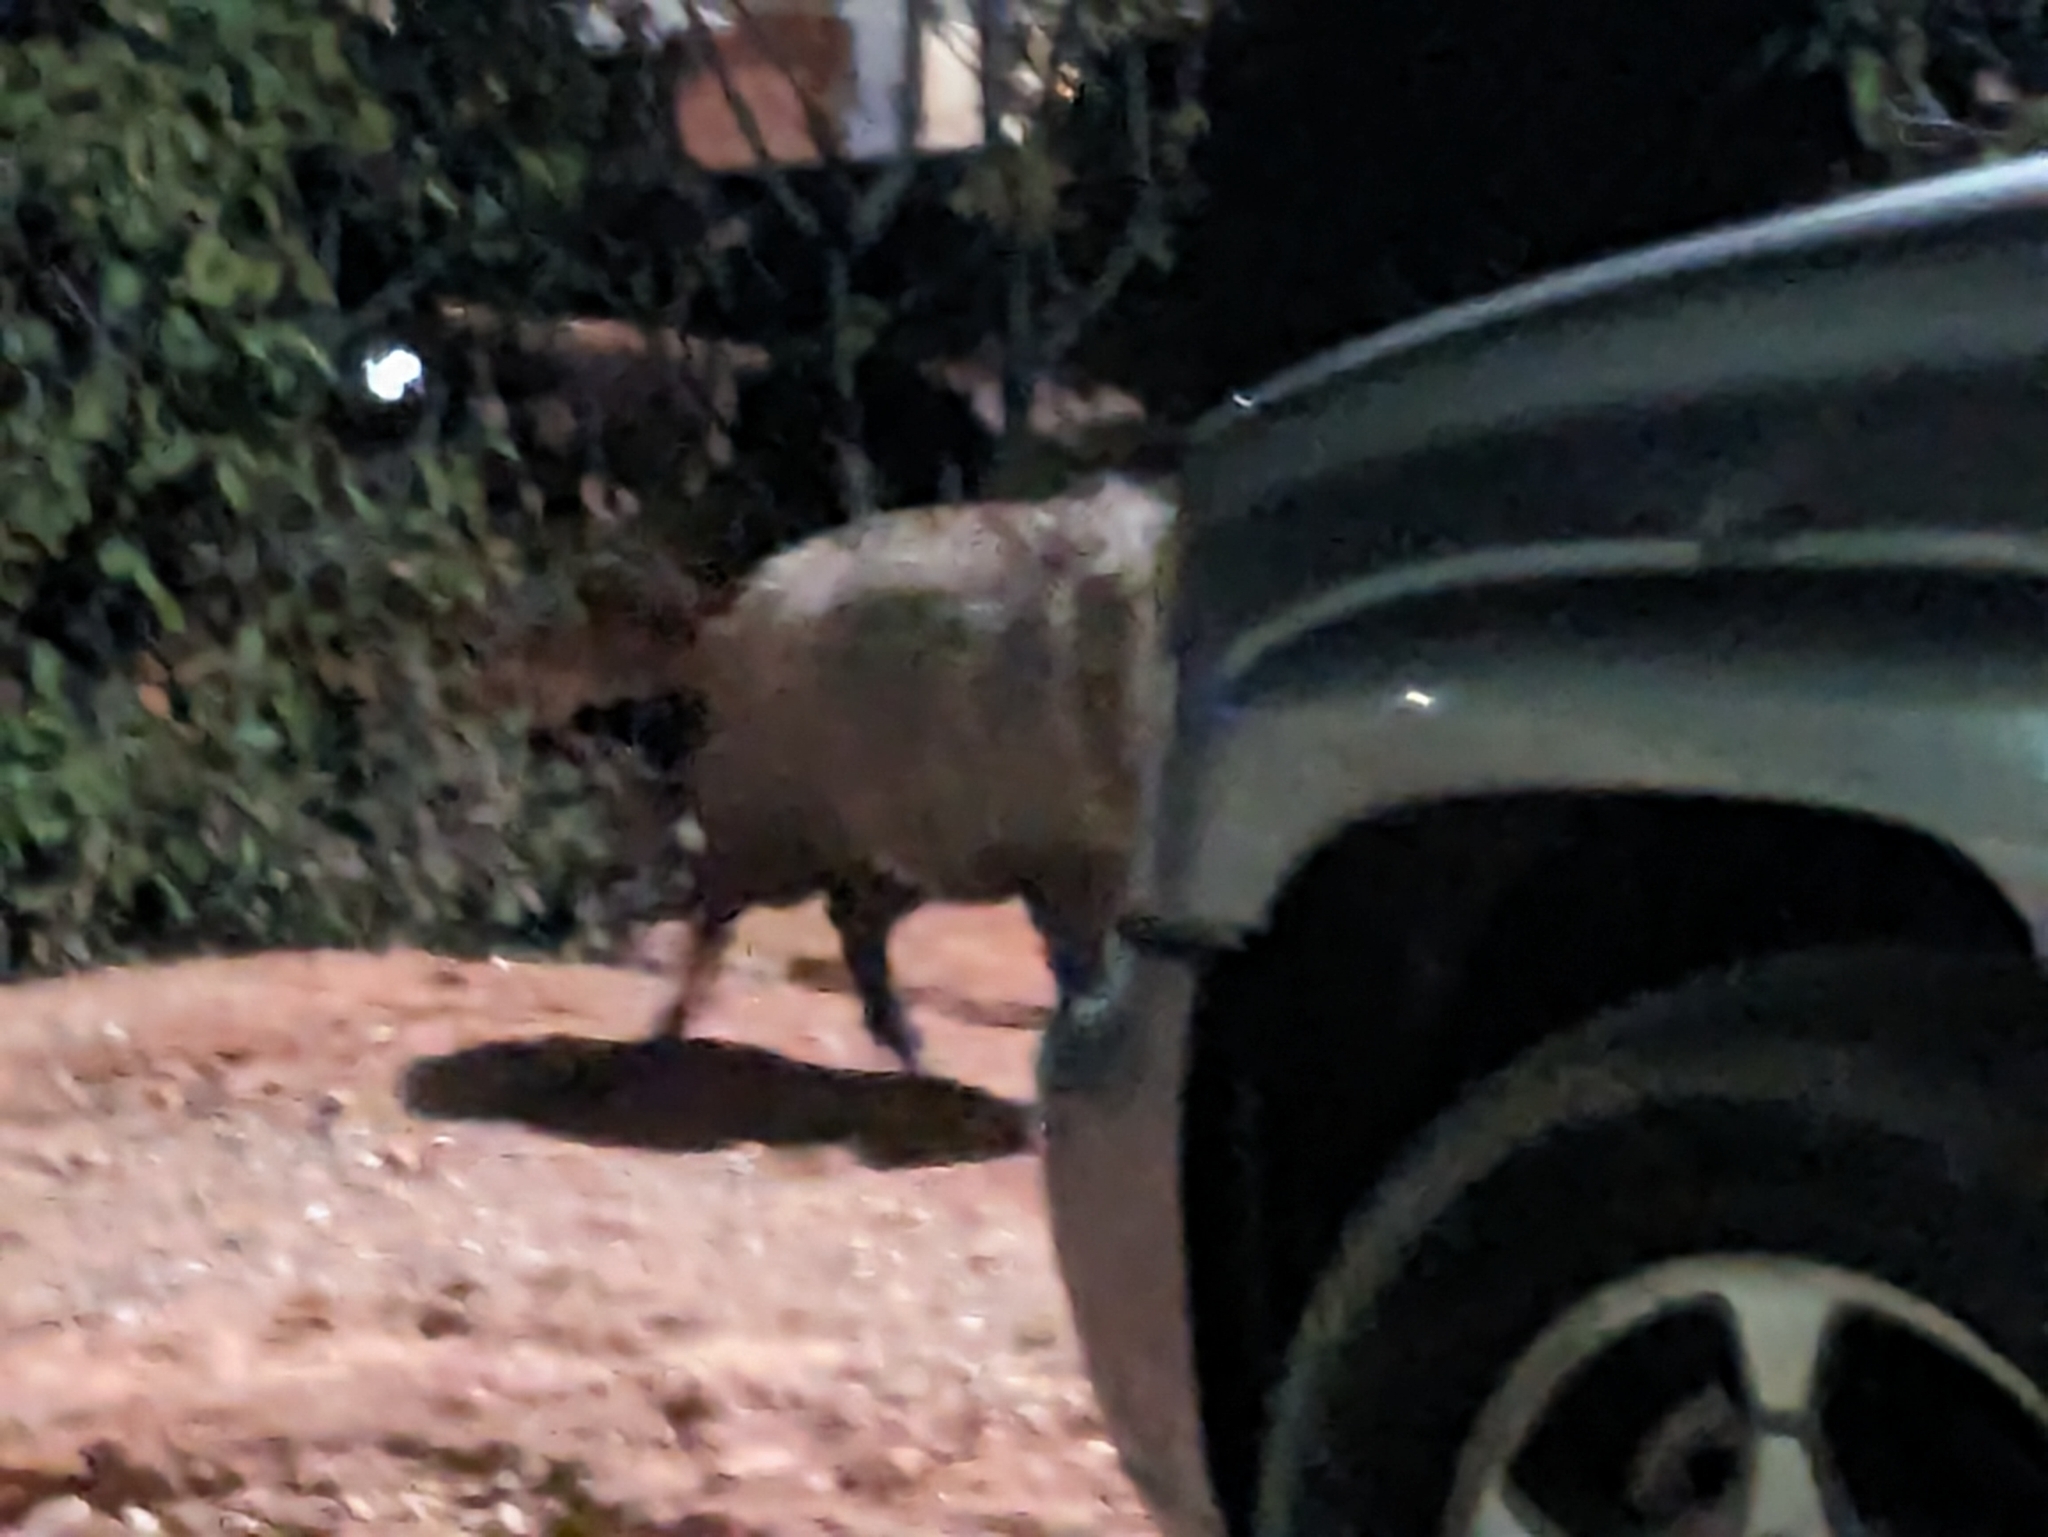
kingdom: Animalia
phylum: Chordata
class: Mammalia
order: Artiodactyla
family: Tayassuidae
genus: Pecari
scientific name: Pecari tajacu
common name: Collared peccary
